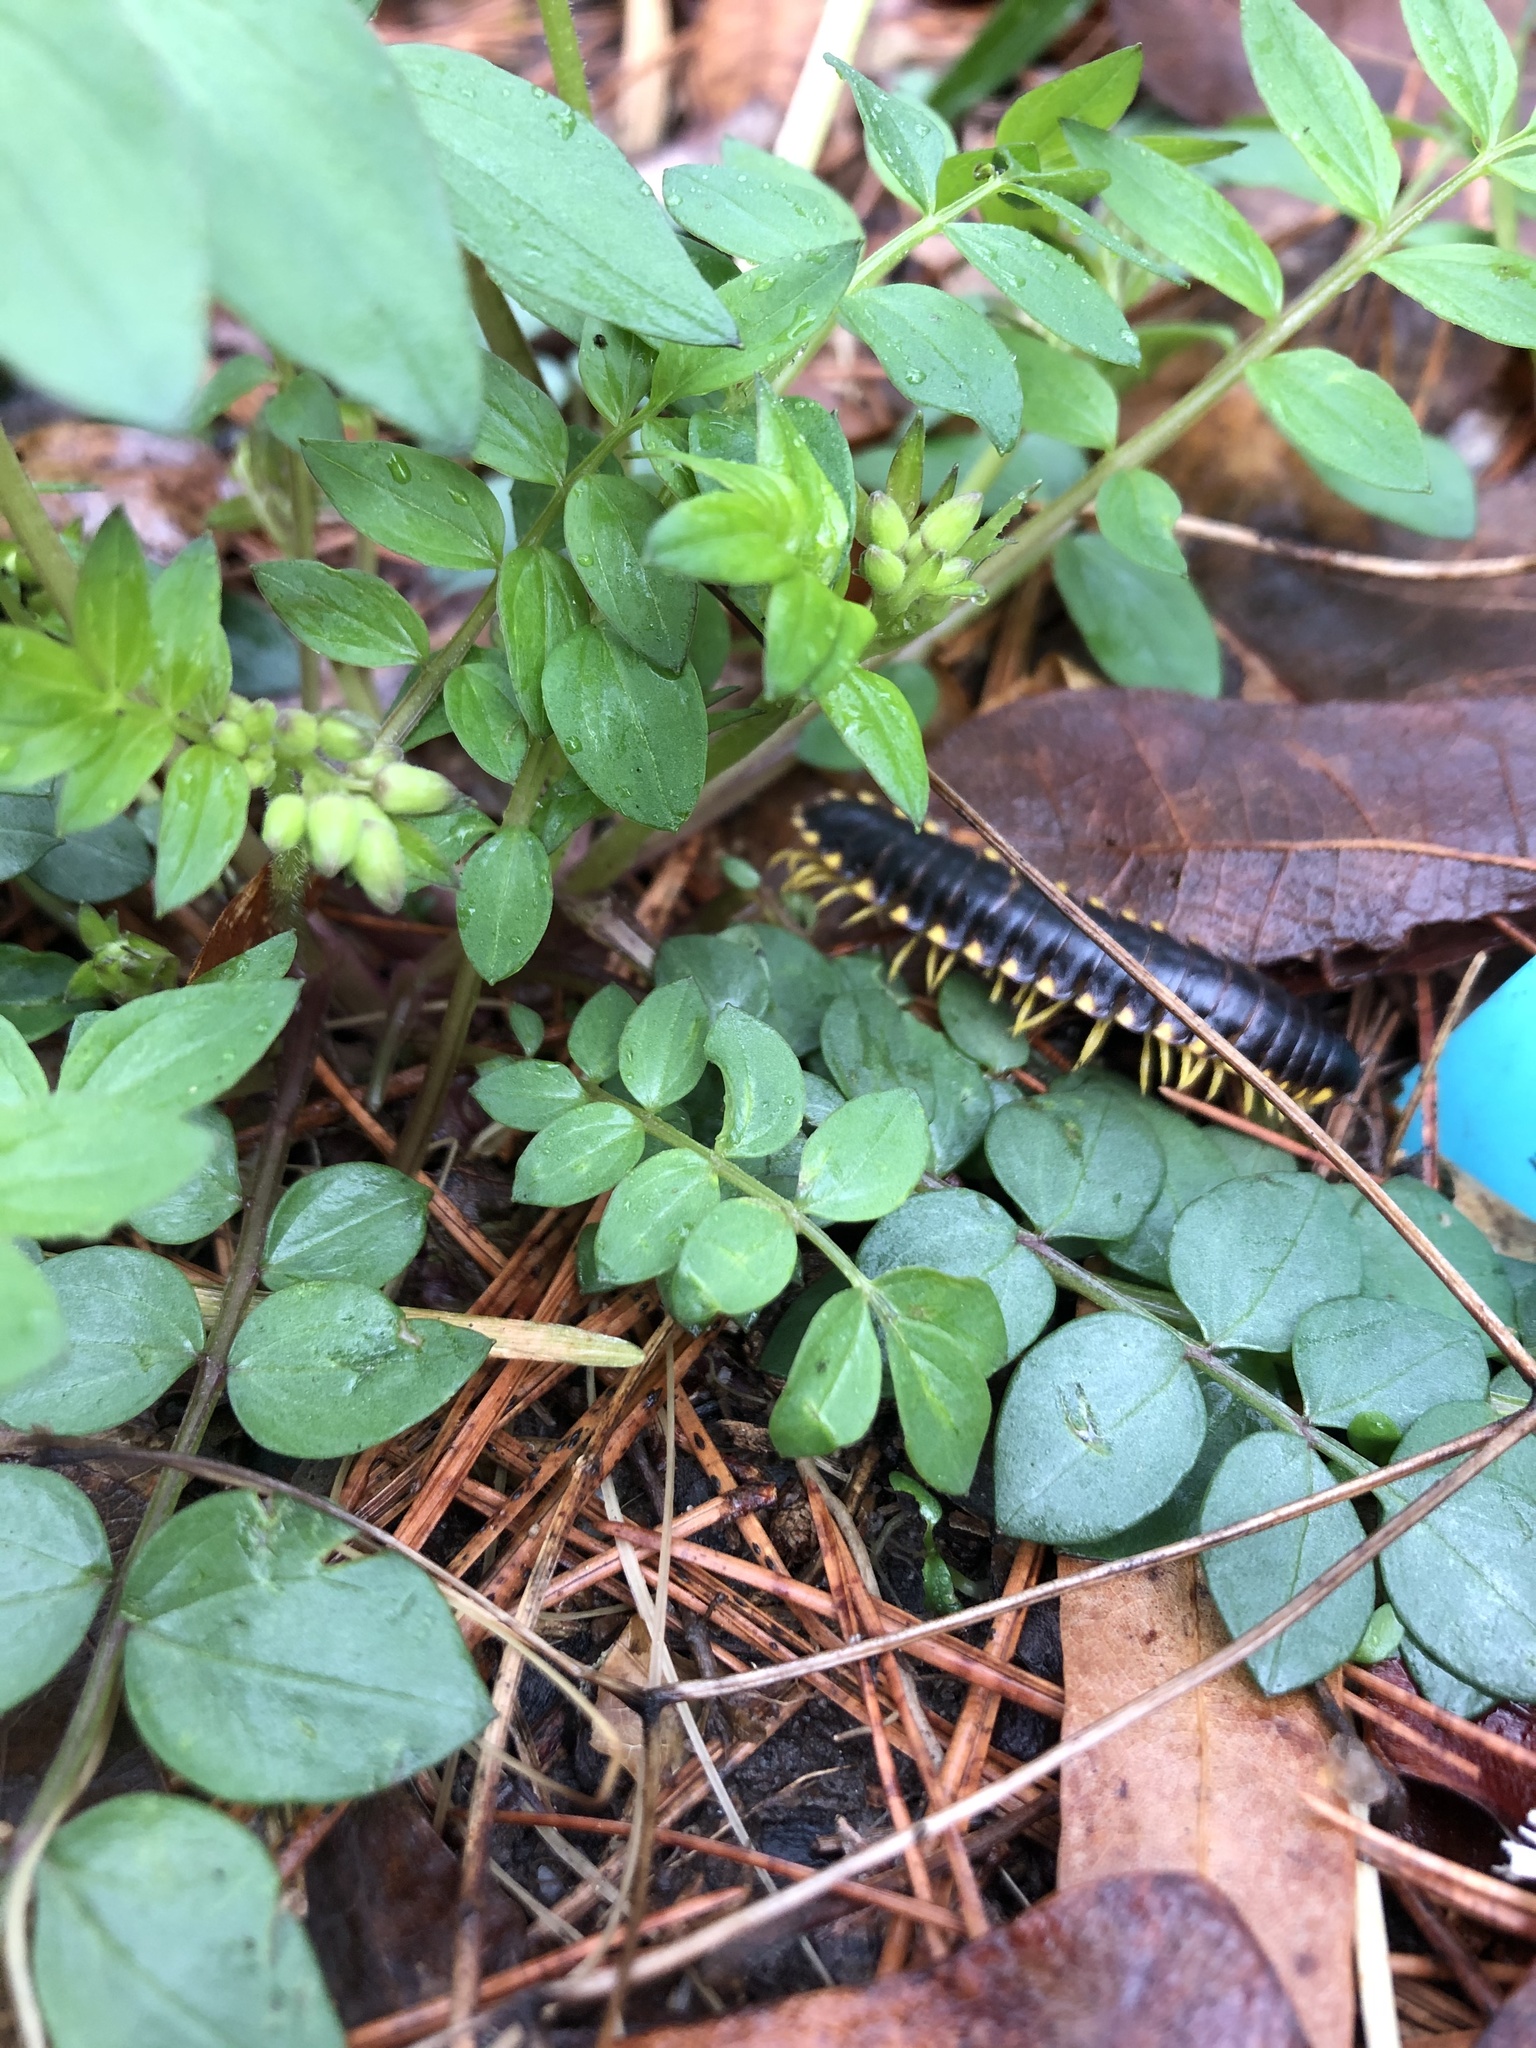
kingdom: Animalia
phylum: Arthropoda
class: Diplopoda
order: Polydesmida
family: Xystodesmidae
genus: Apheloria
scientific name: Apheloria tigana
